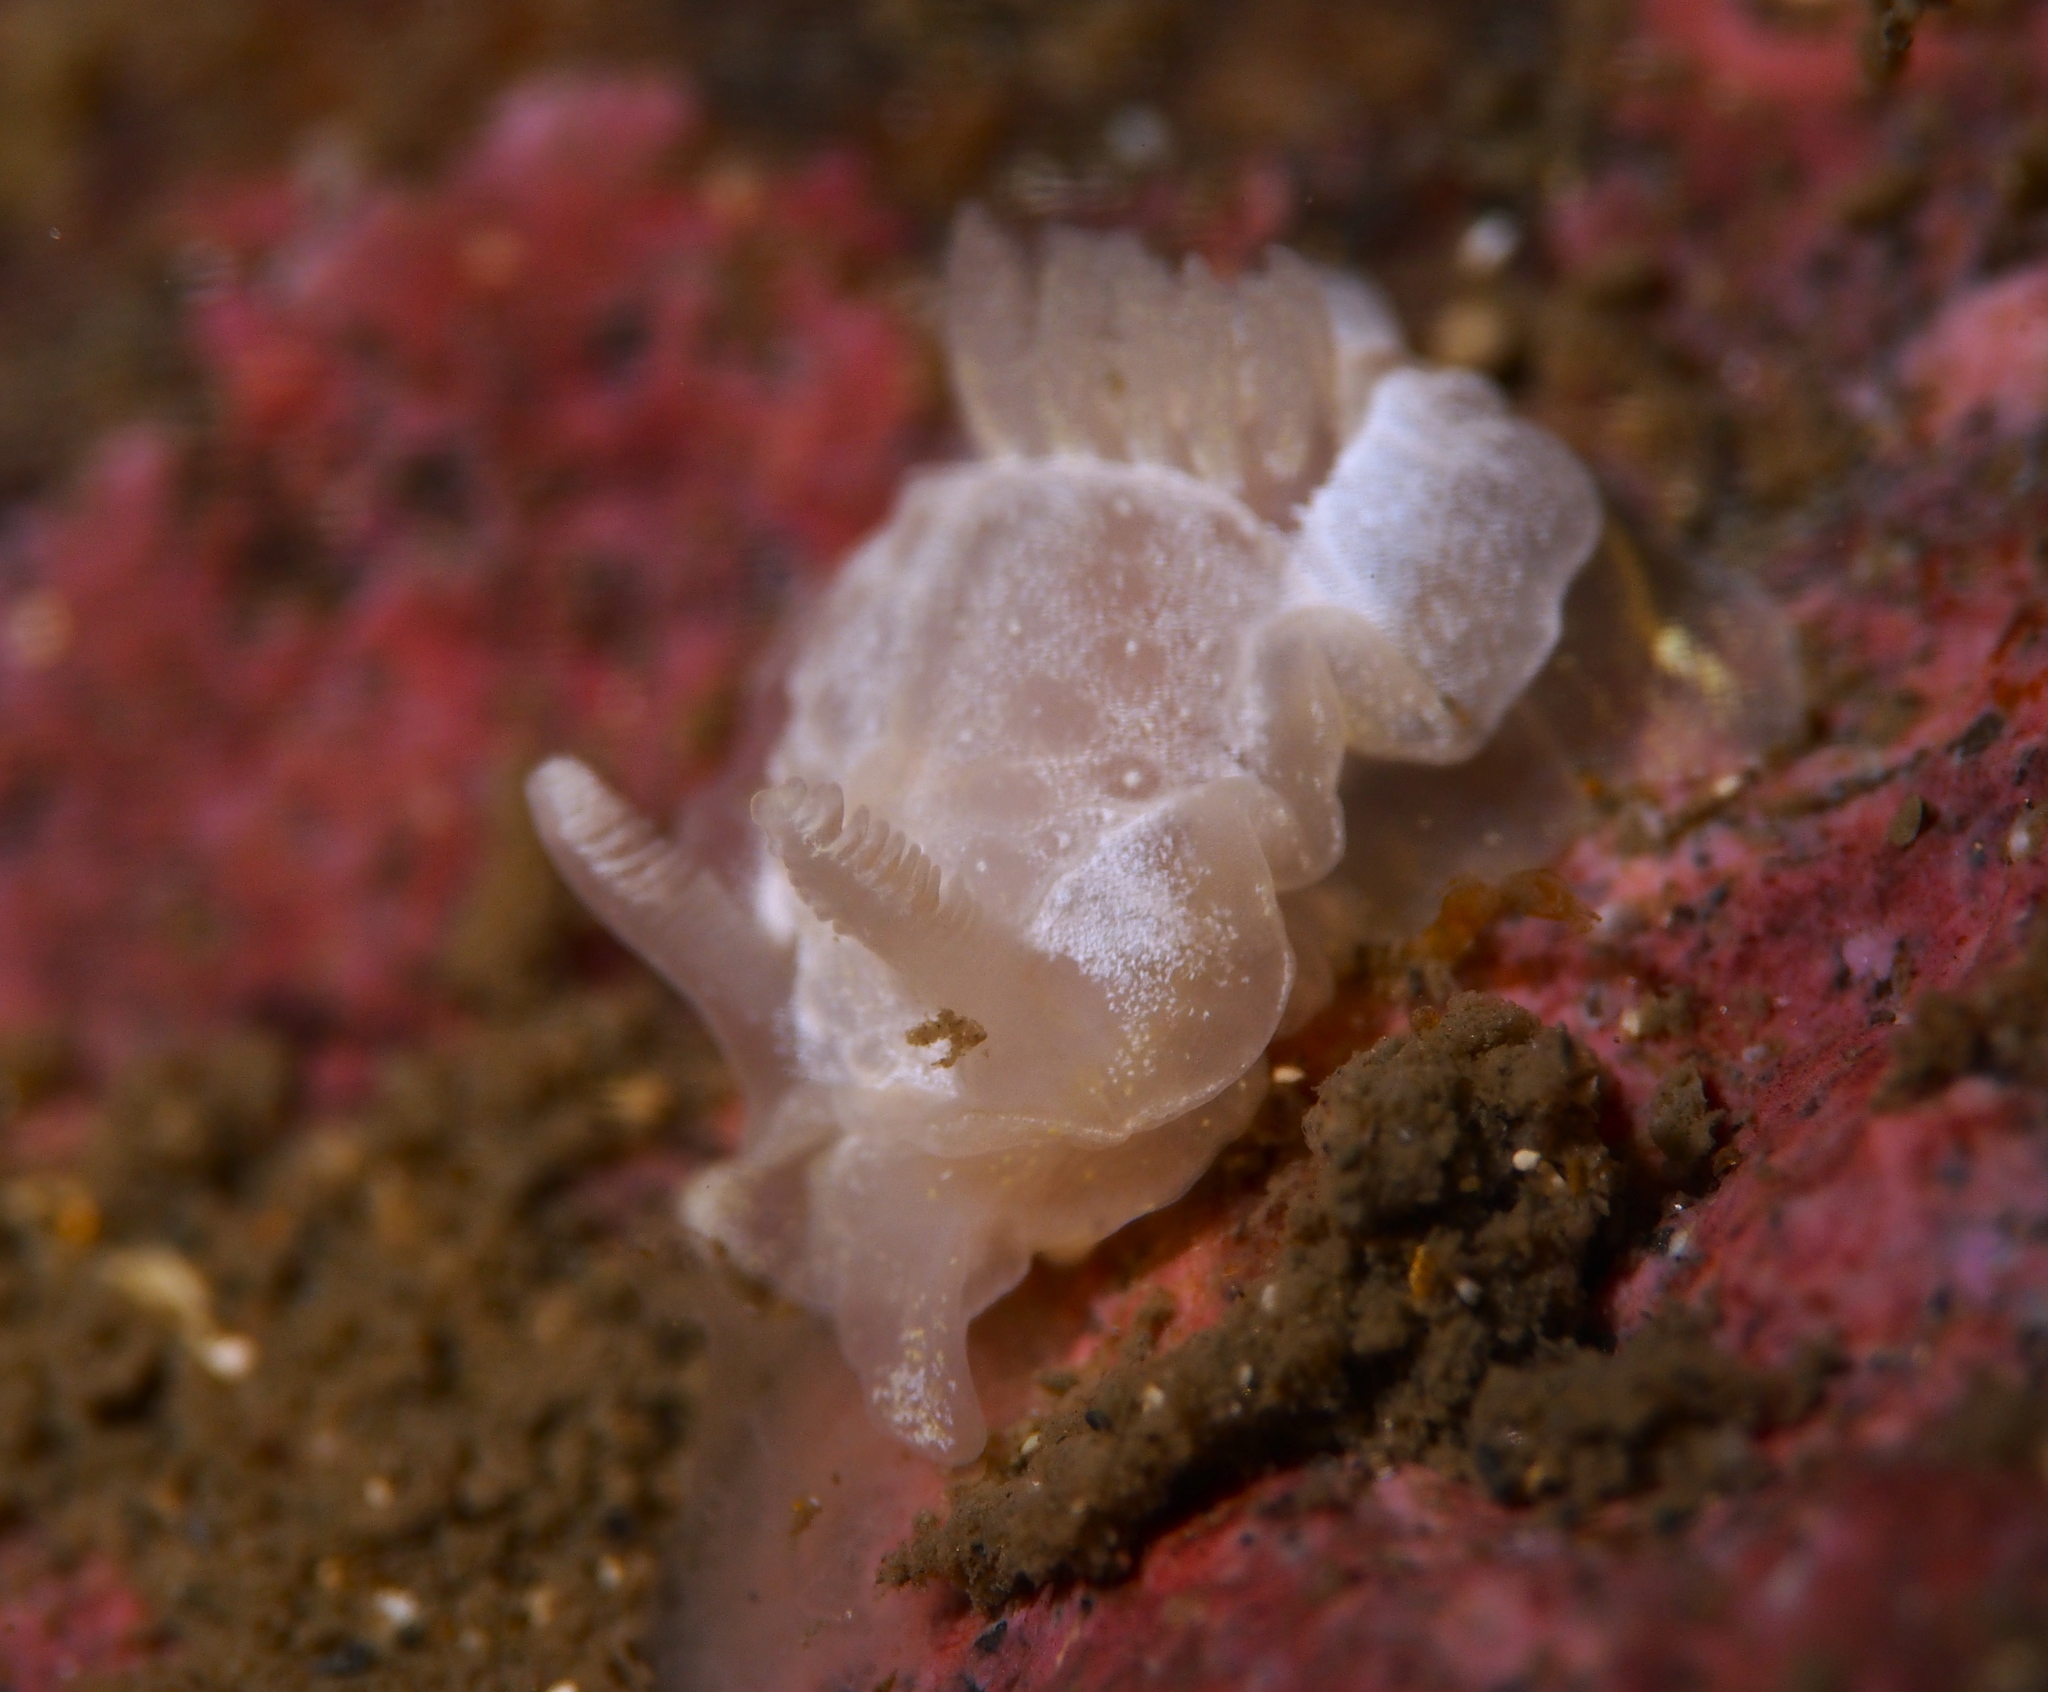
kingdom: Animalia
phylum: Mollusca
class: Gastropoda
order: Nudibranchia
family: Goniodorididae
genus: Okenia
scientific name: Okenia
